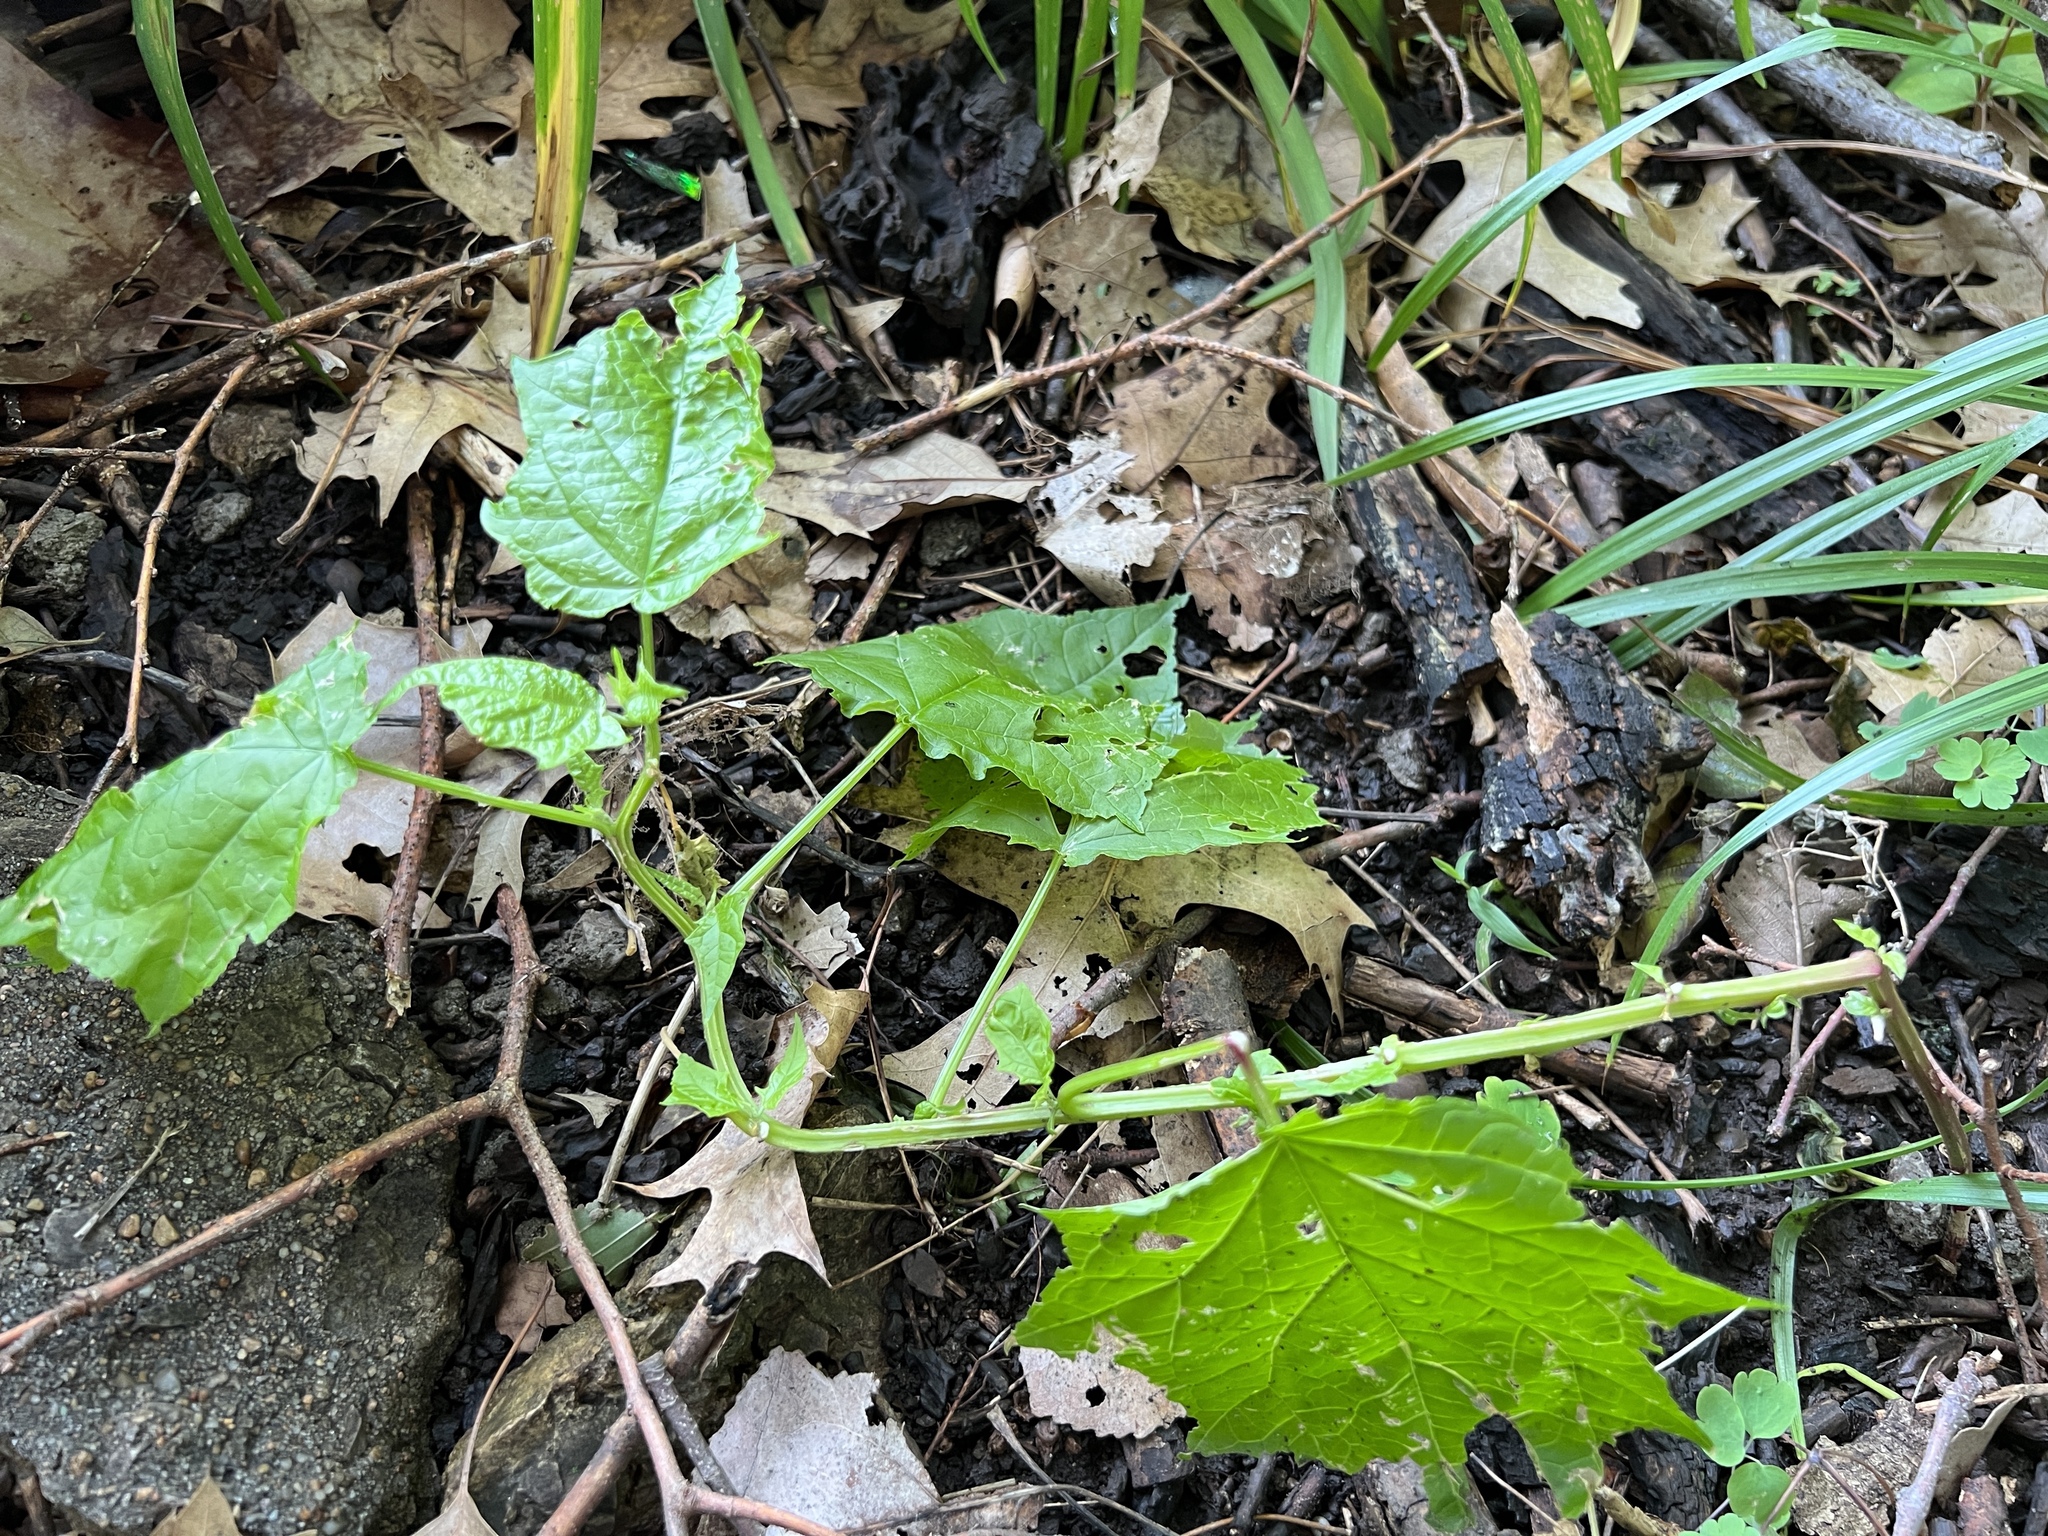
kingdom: Plantae
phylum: Tracheophyta
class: Magnoliopsida
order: Caryophyllales
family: Amaranthaceae
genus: Chenopodiastrum
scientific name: Chenopodiastrum simplex
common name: Large-seed goosefoot
